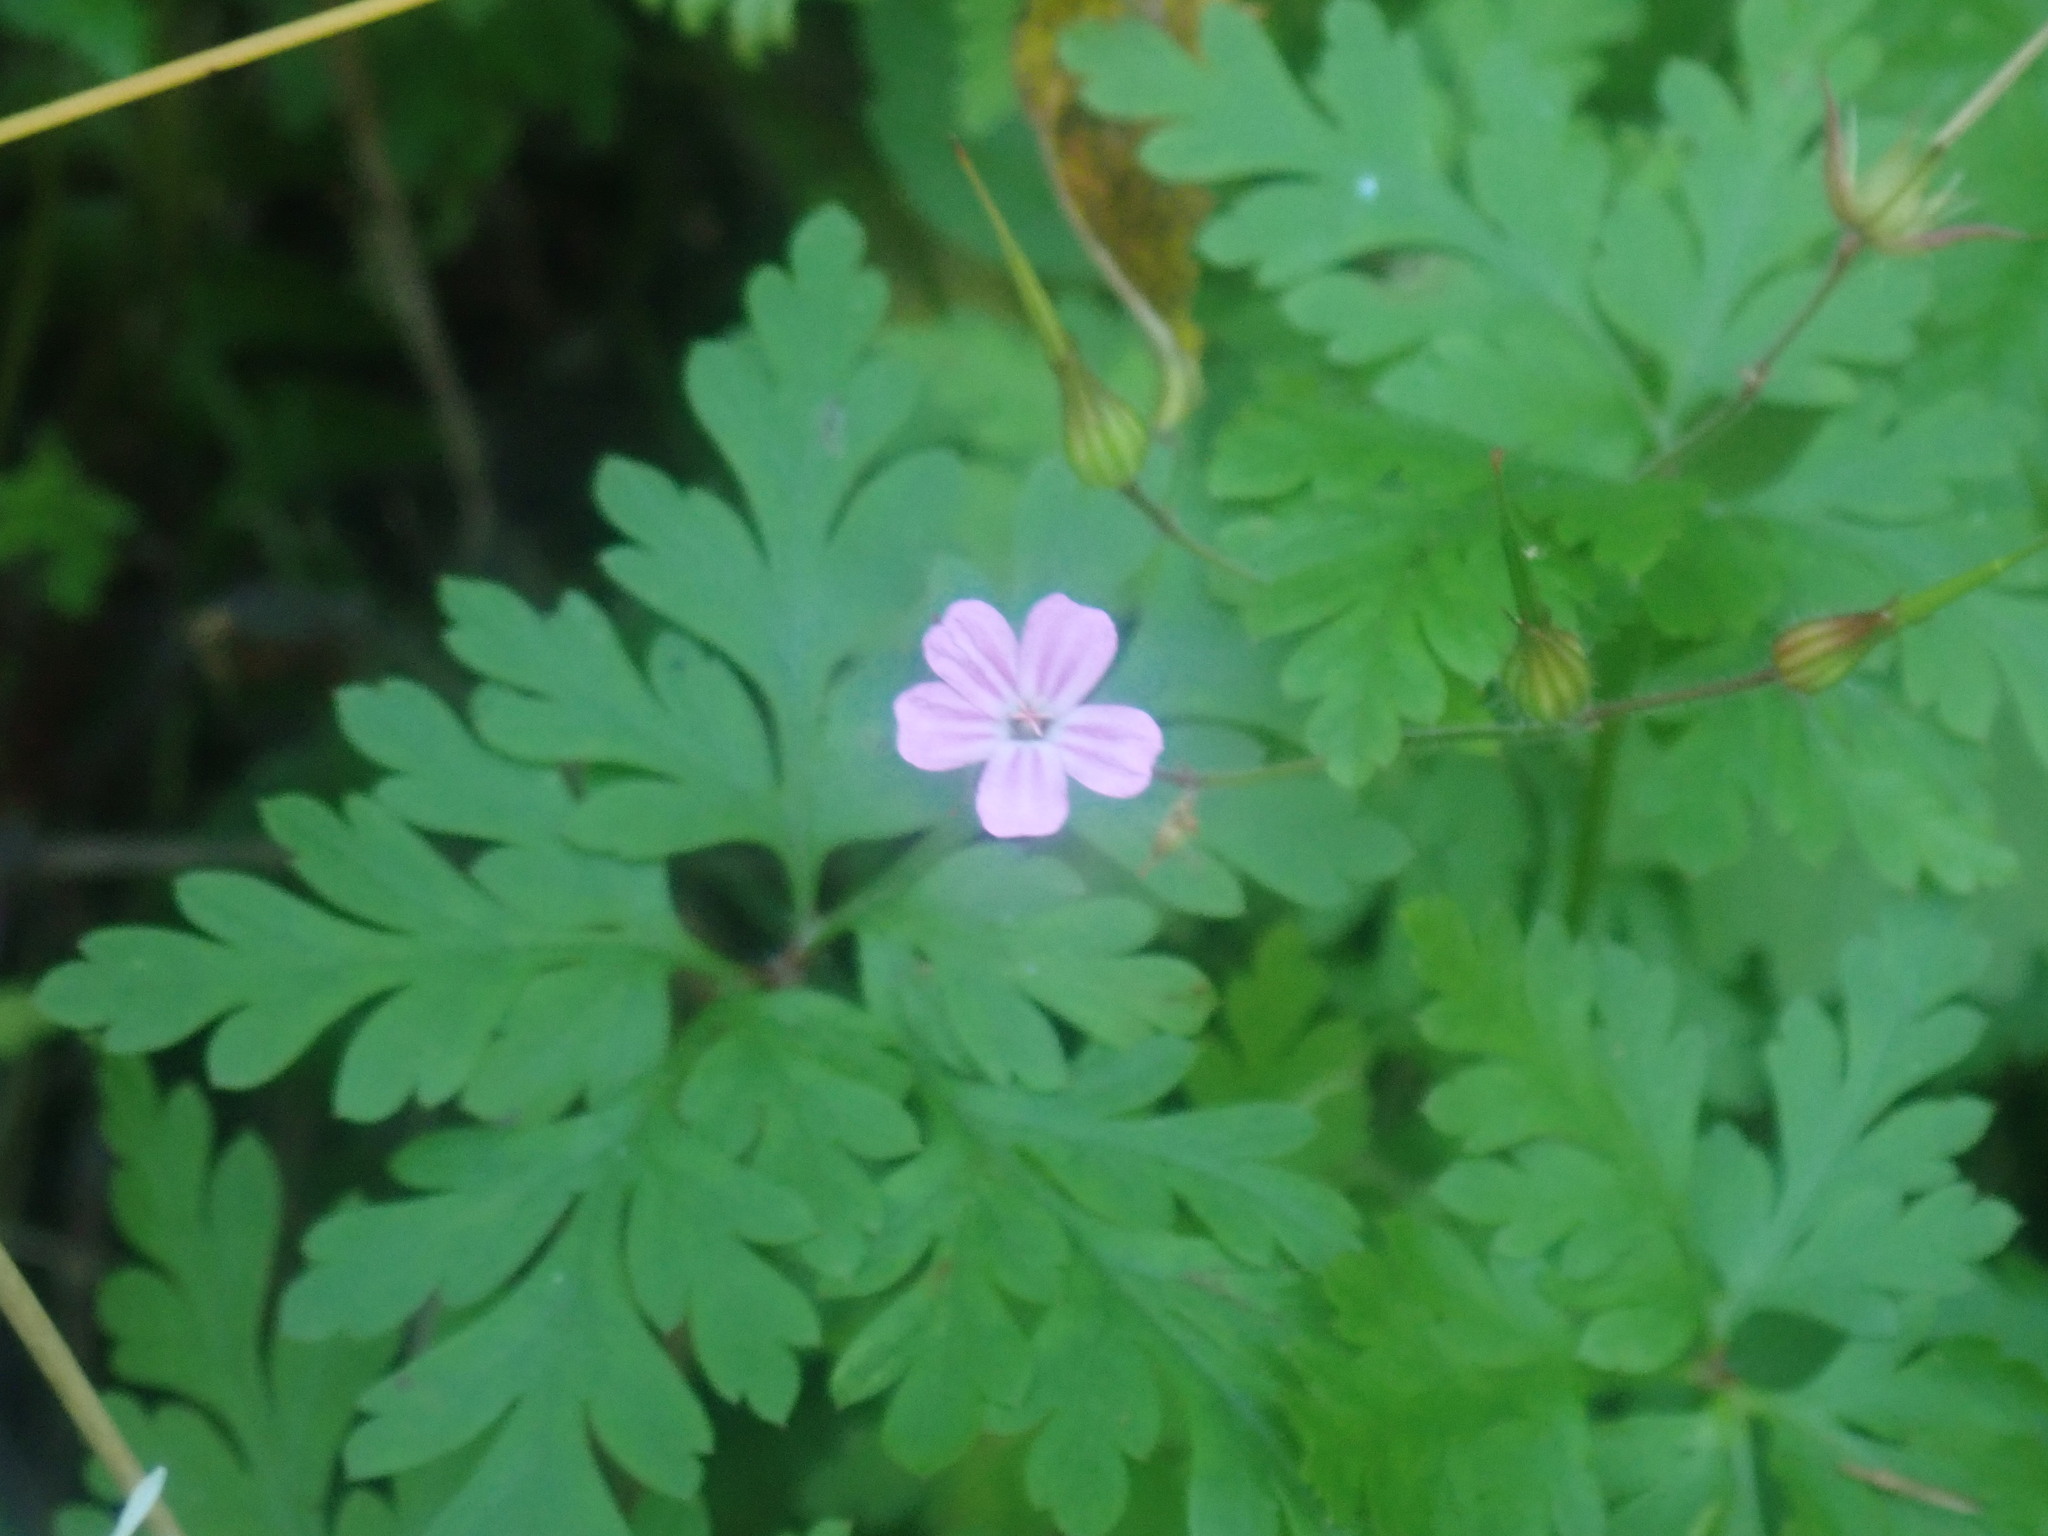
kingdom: Plantae
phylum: Tracheophyta
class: Magnoliopsida
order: Geraniales
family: Geraniaceae
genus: Geranium
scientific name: Geranium robertianum
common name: Herb-robert
